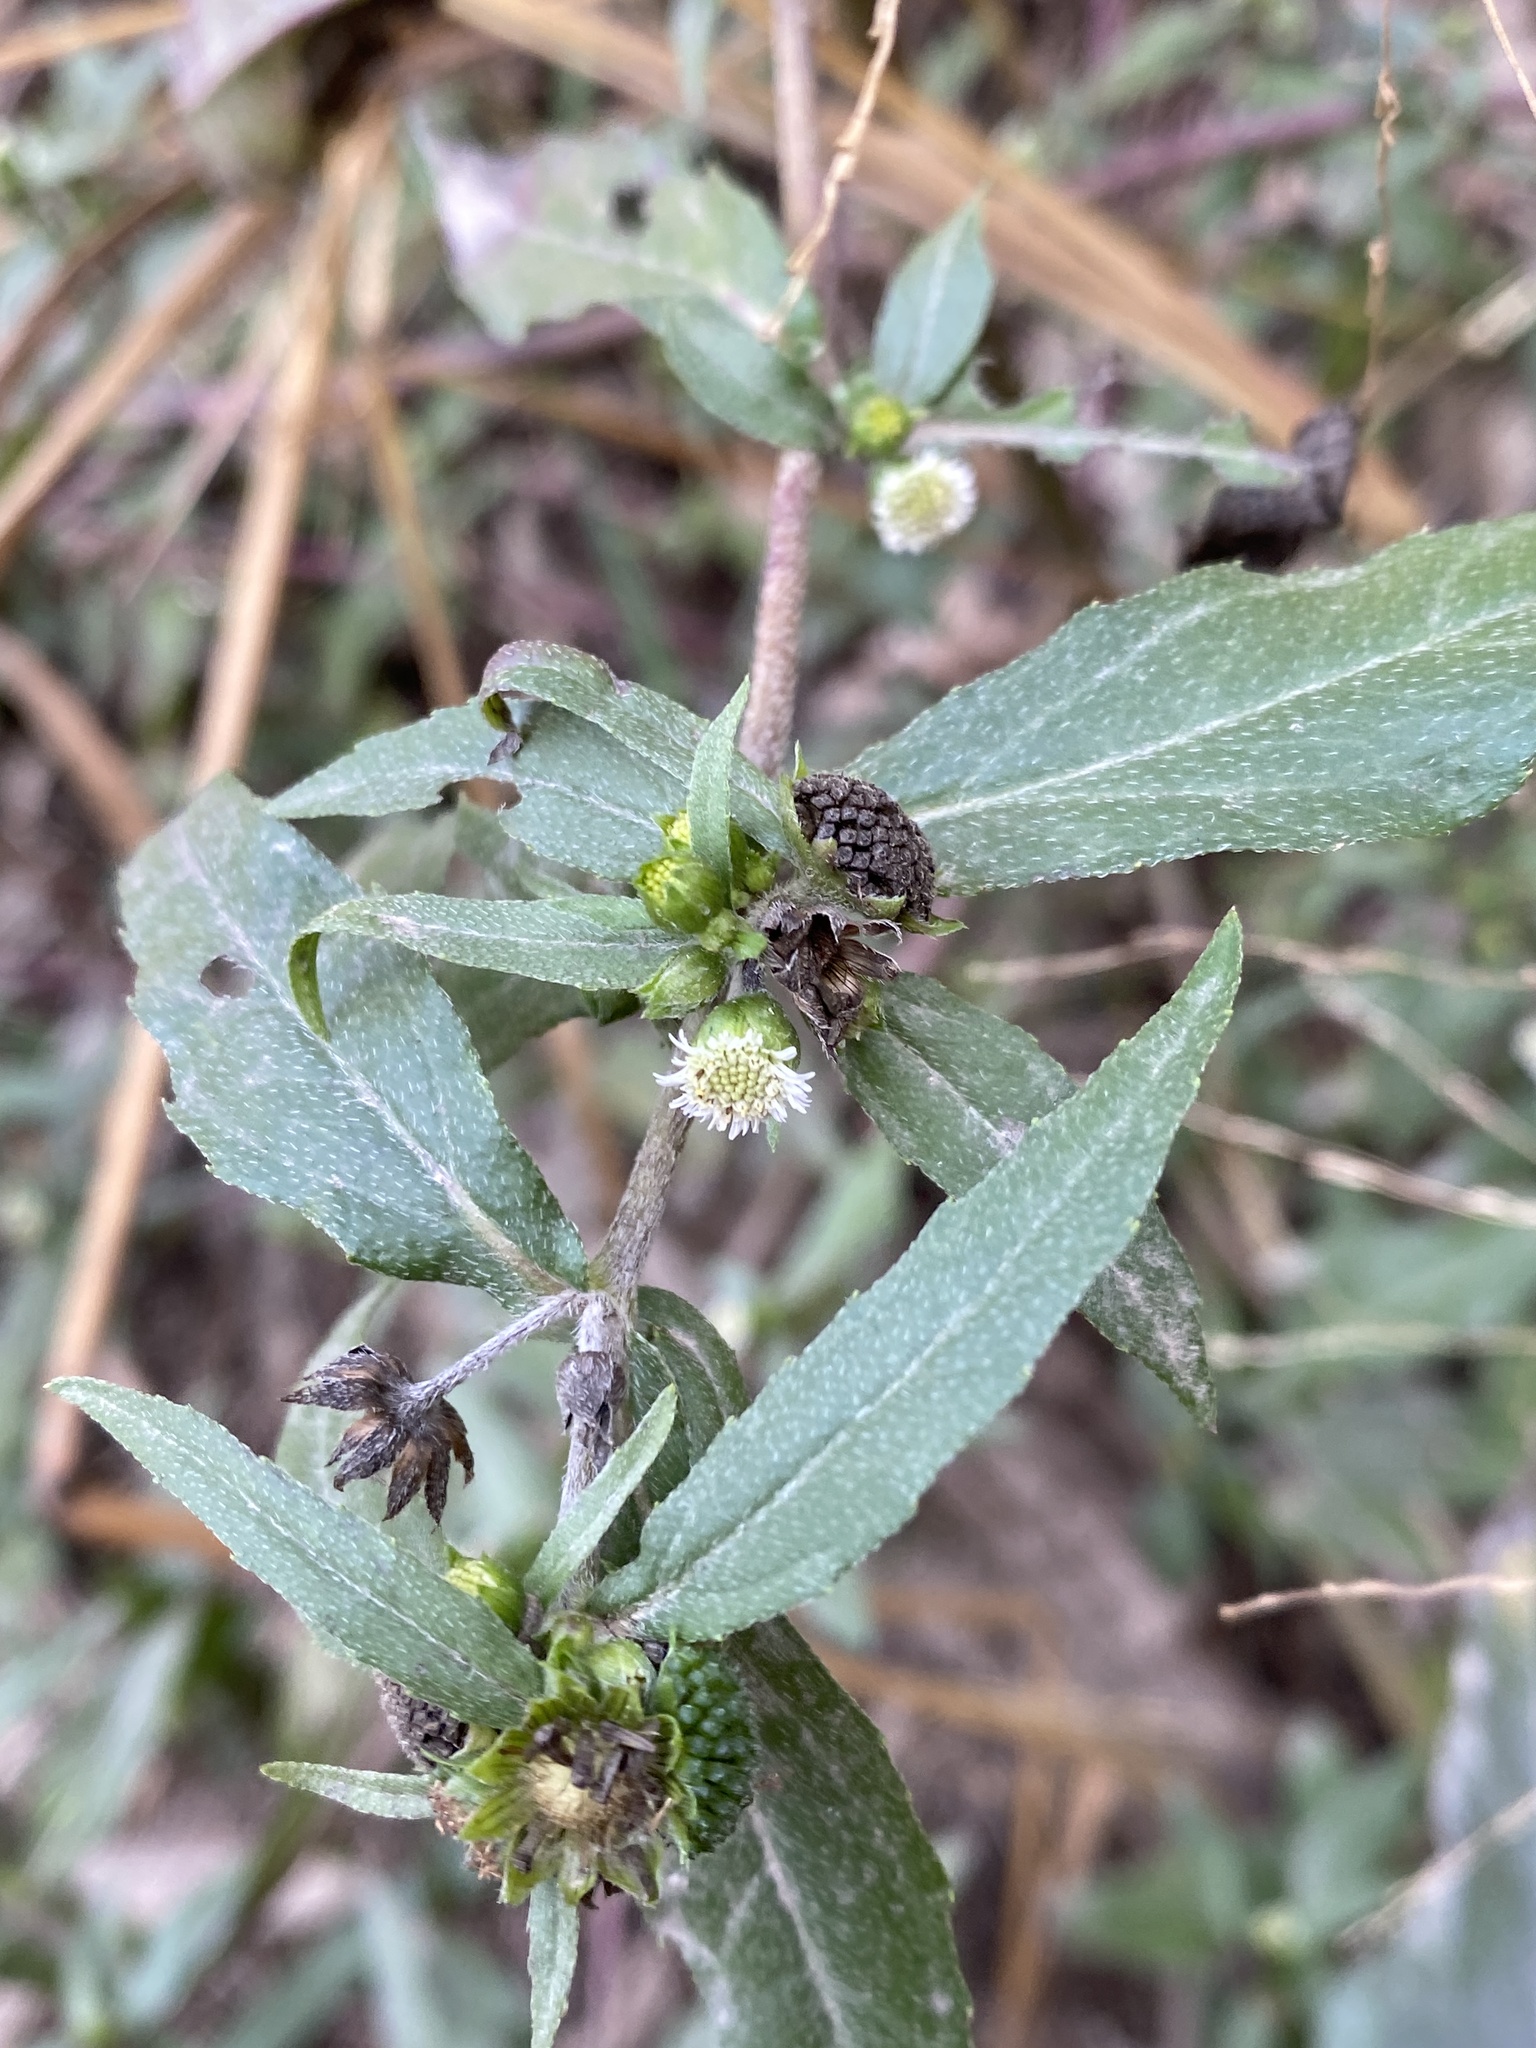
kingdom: Plantae
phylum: Tracheophyta
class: Magnoliopsida
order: Asterales
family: Asteraceae
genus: Eclipta
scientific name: Eclipta prostrata
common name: False daisy
